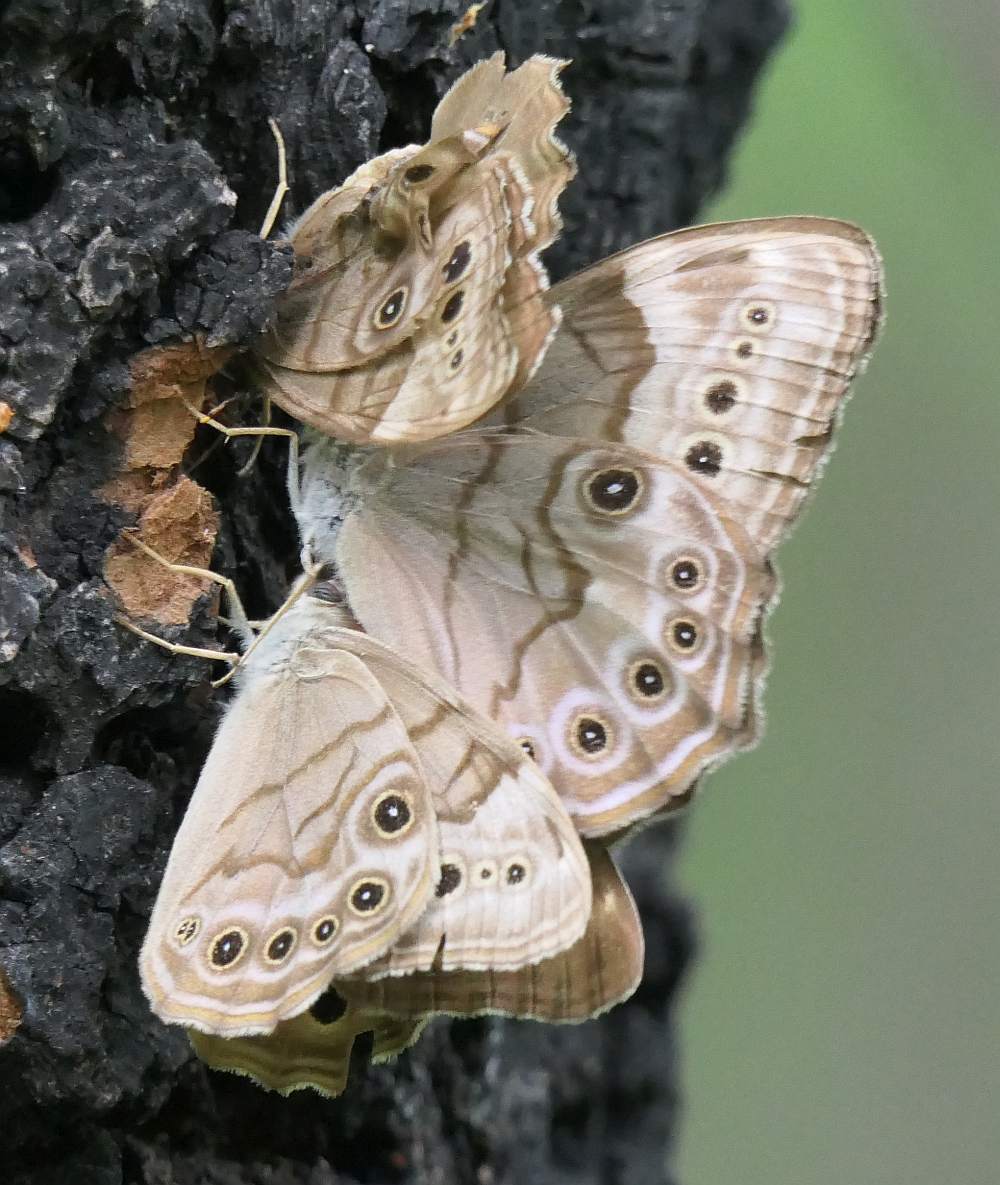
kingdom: Animalia
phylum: Arthropoda
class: Insecta
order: Lepidoptera
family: Nymphalidae
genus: Lethe
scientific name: Lethe anthedon
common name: Northern pearly-eye
